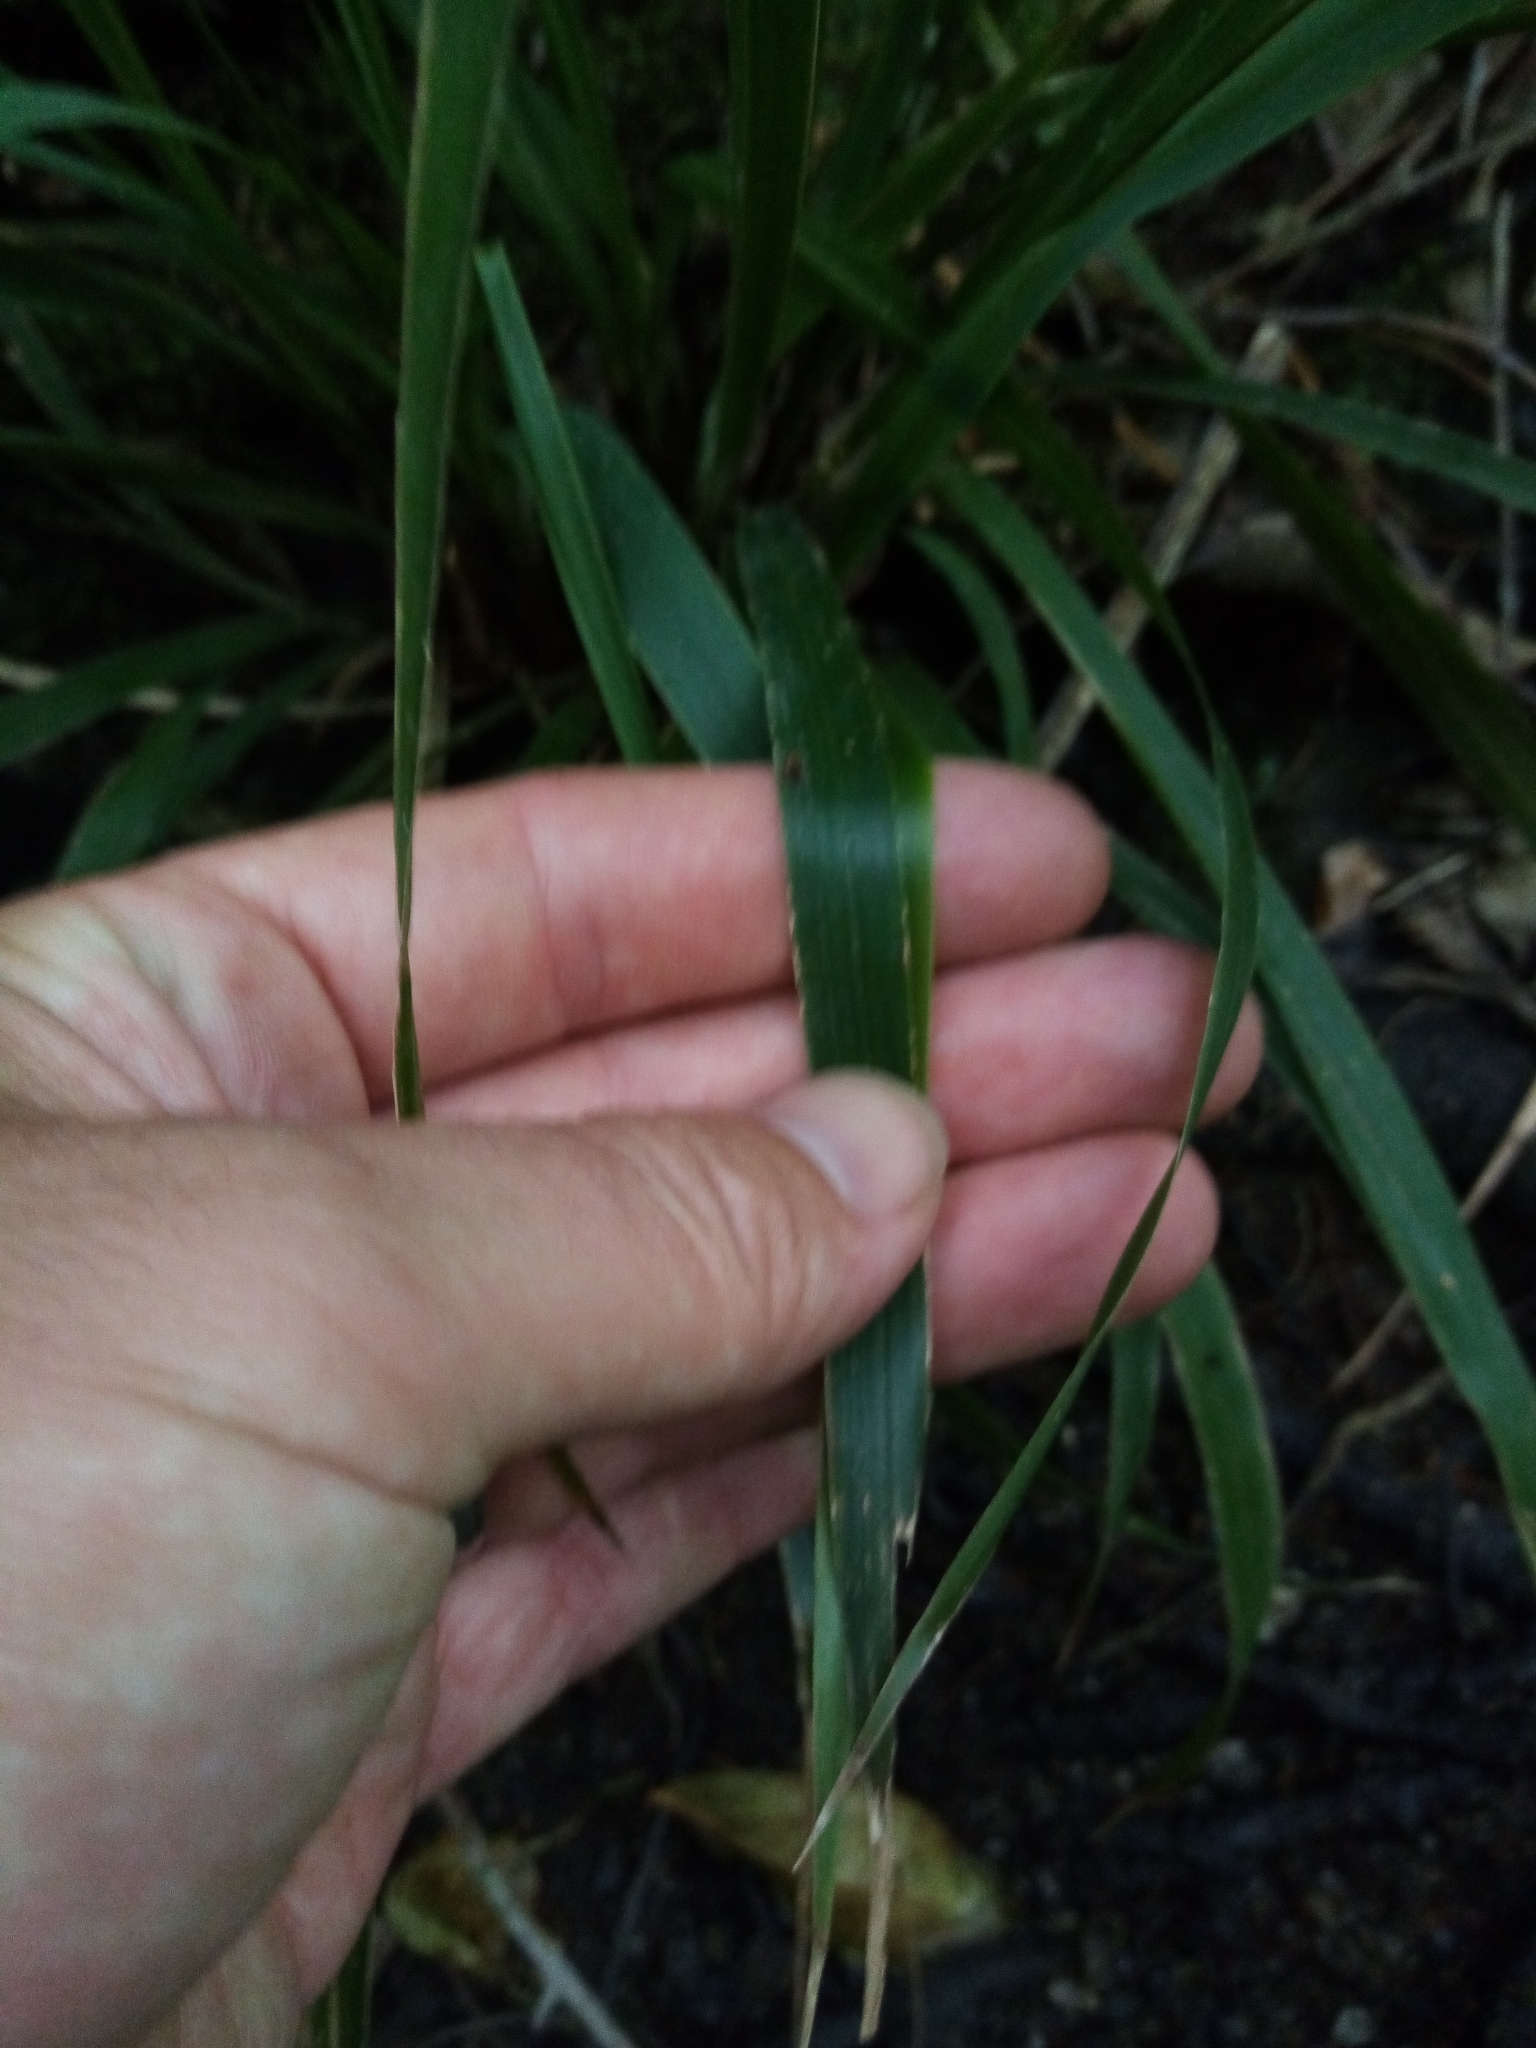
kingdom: Plantae
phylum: Tracheophyta
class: Liliopsida
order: Poales
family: Poaceae
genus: Ehrharta
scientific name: Ehrharta diplax
